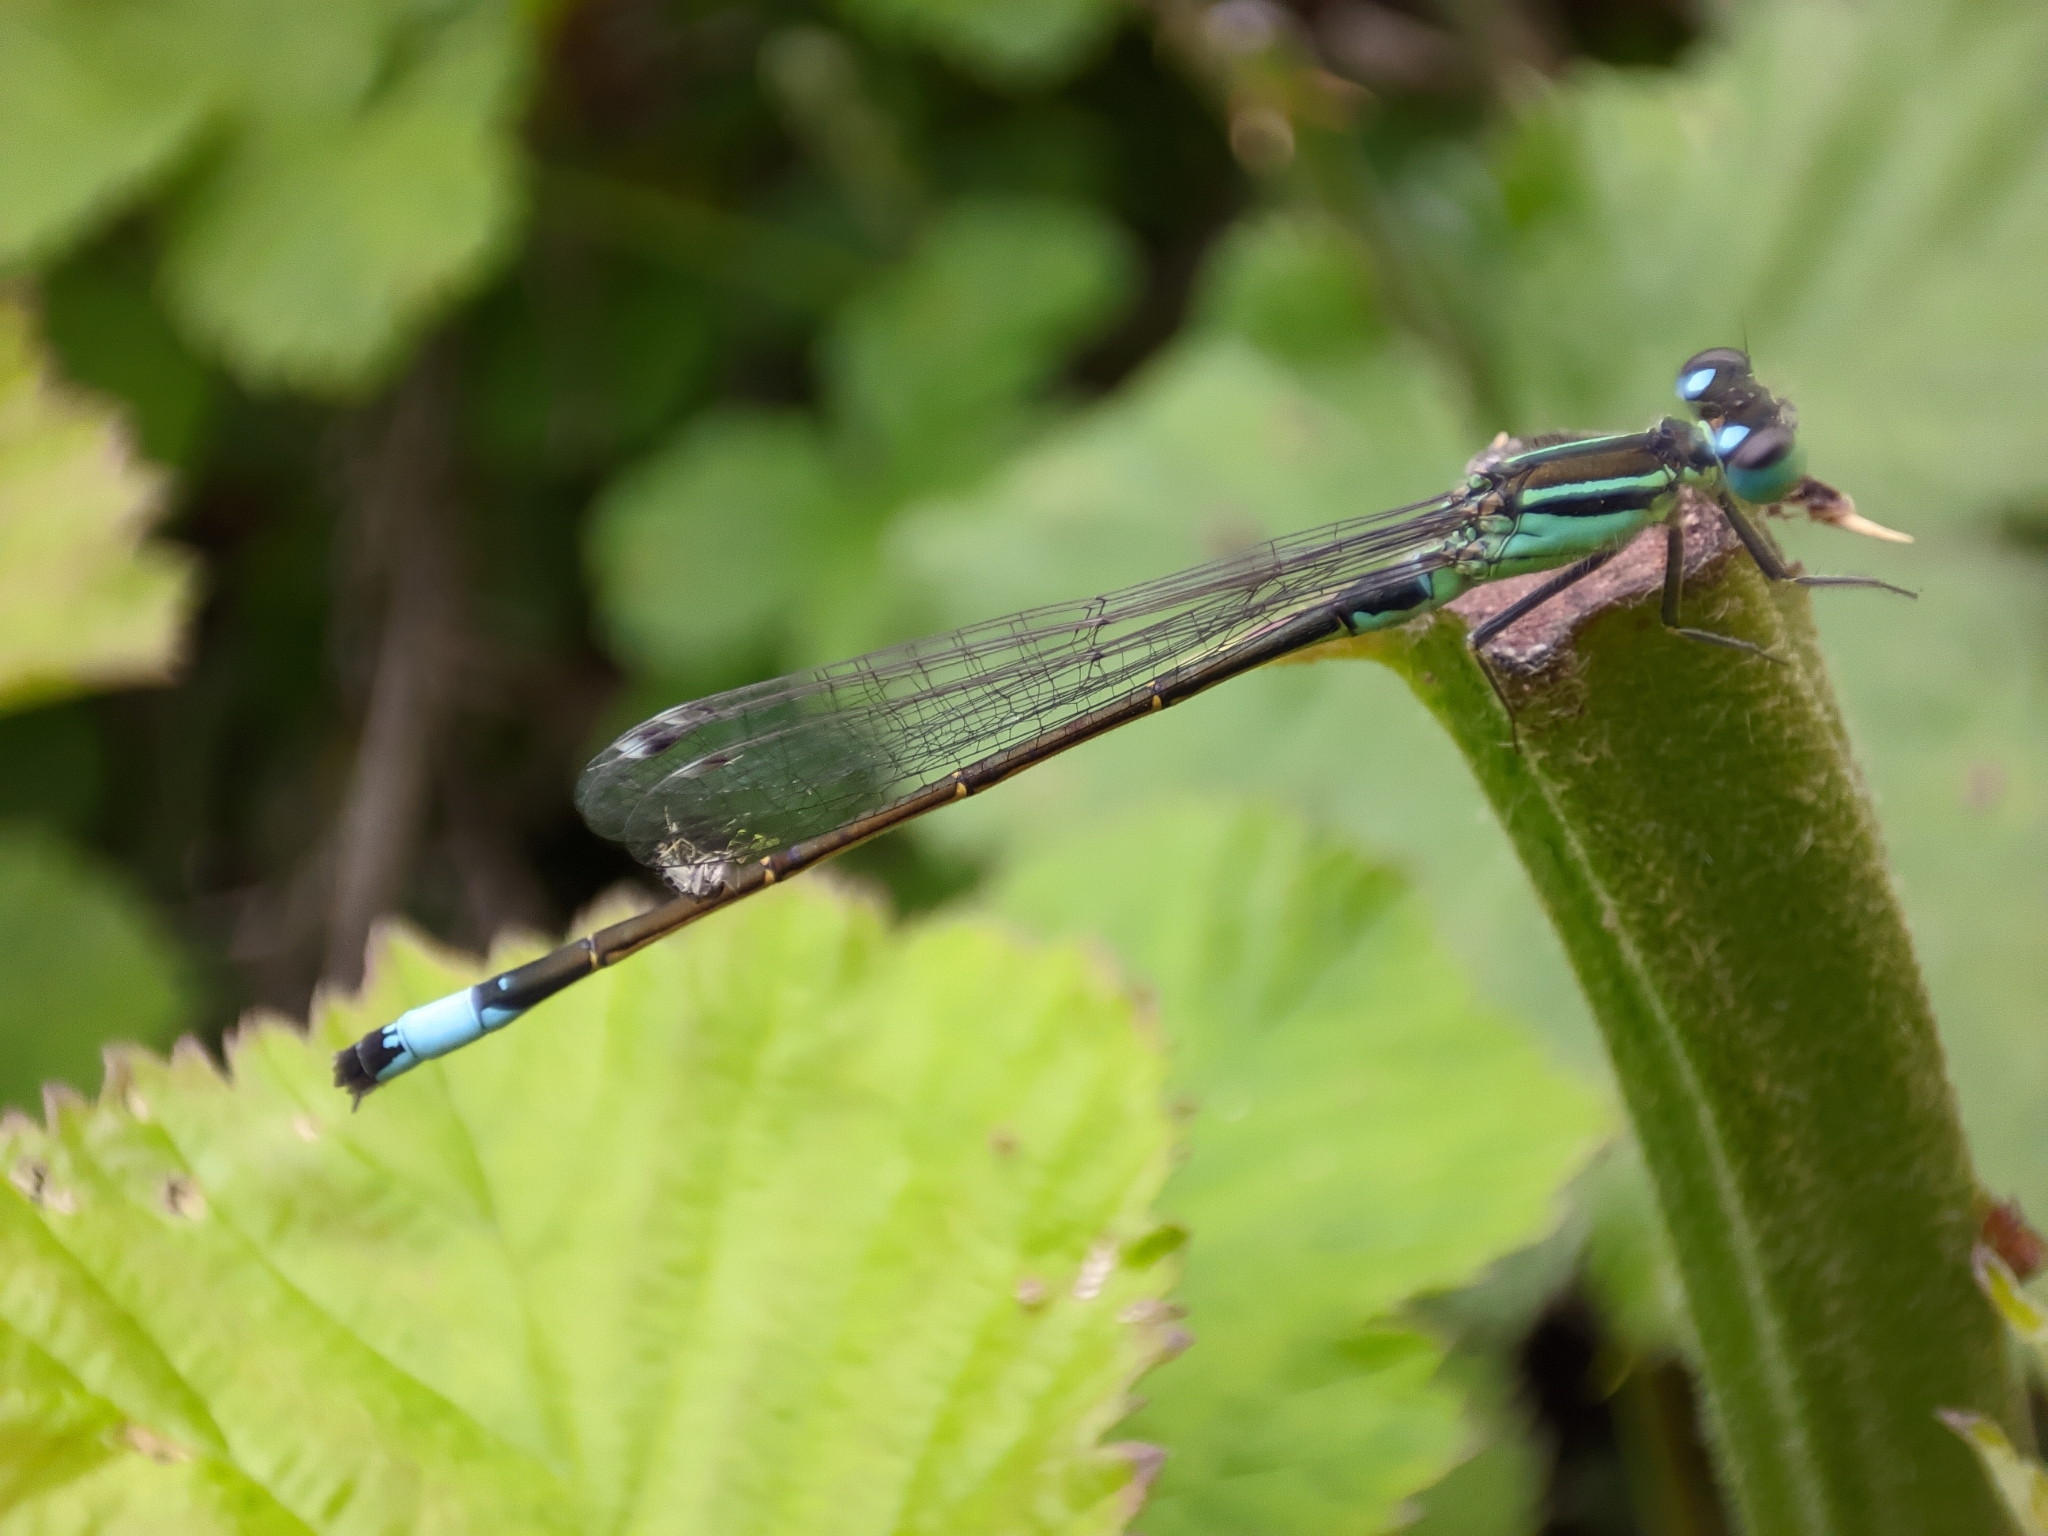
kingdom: Animalia
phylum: Arthropoda
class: Insecta
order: Odonata
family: Coenagrionidae
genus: Ischnura
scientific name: Ischnura elegans
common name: Blue-tailed damselfly
